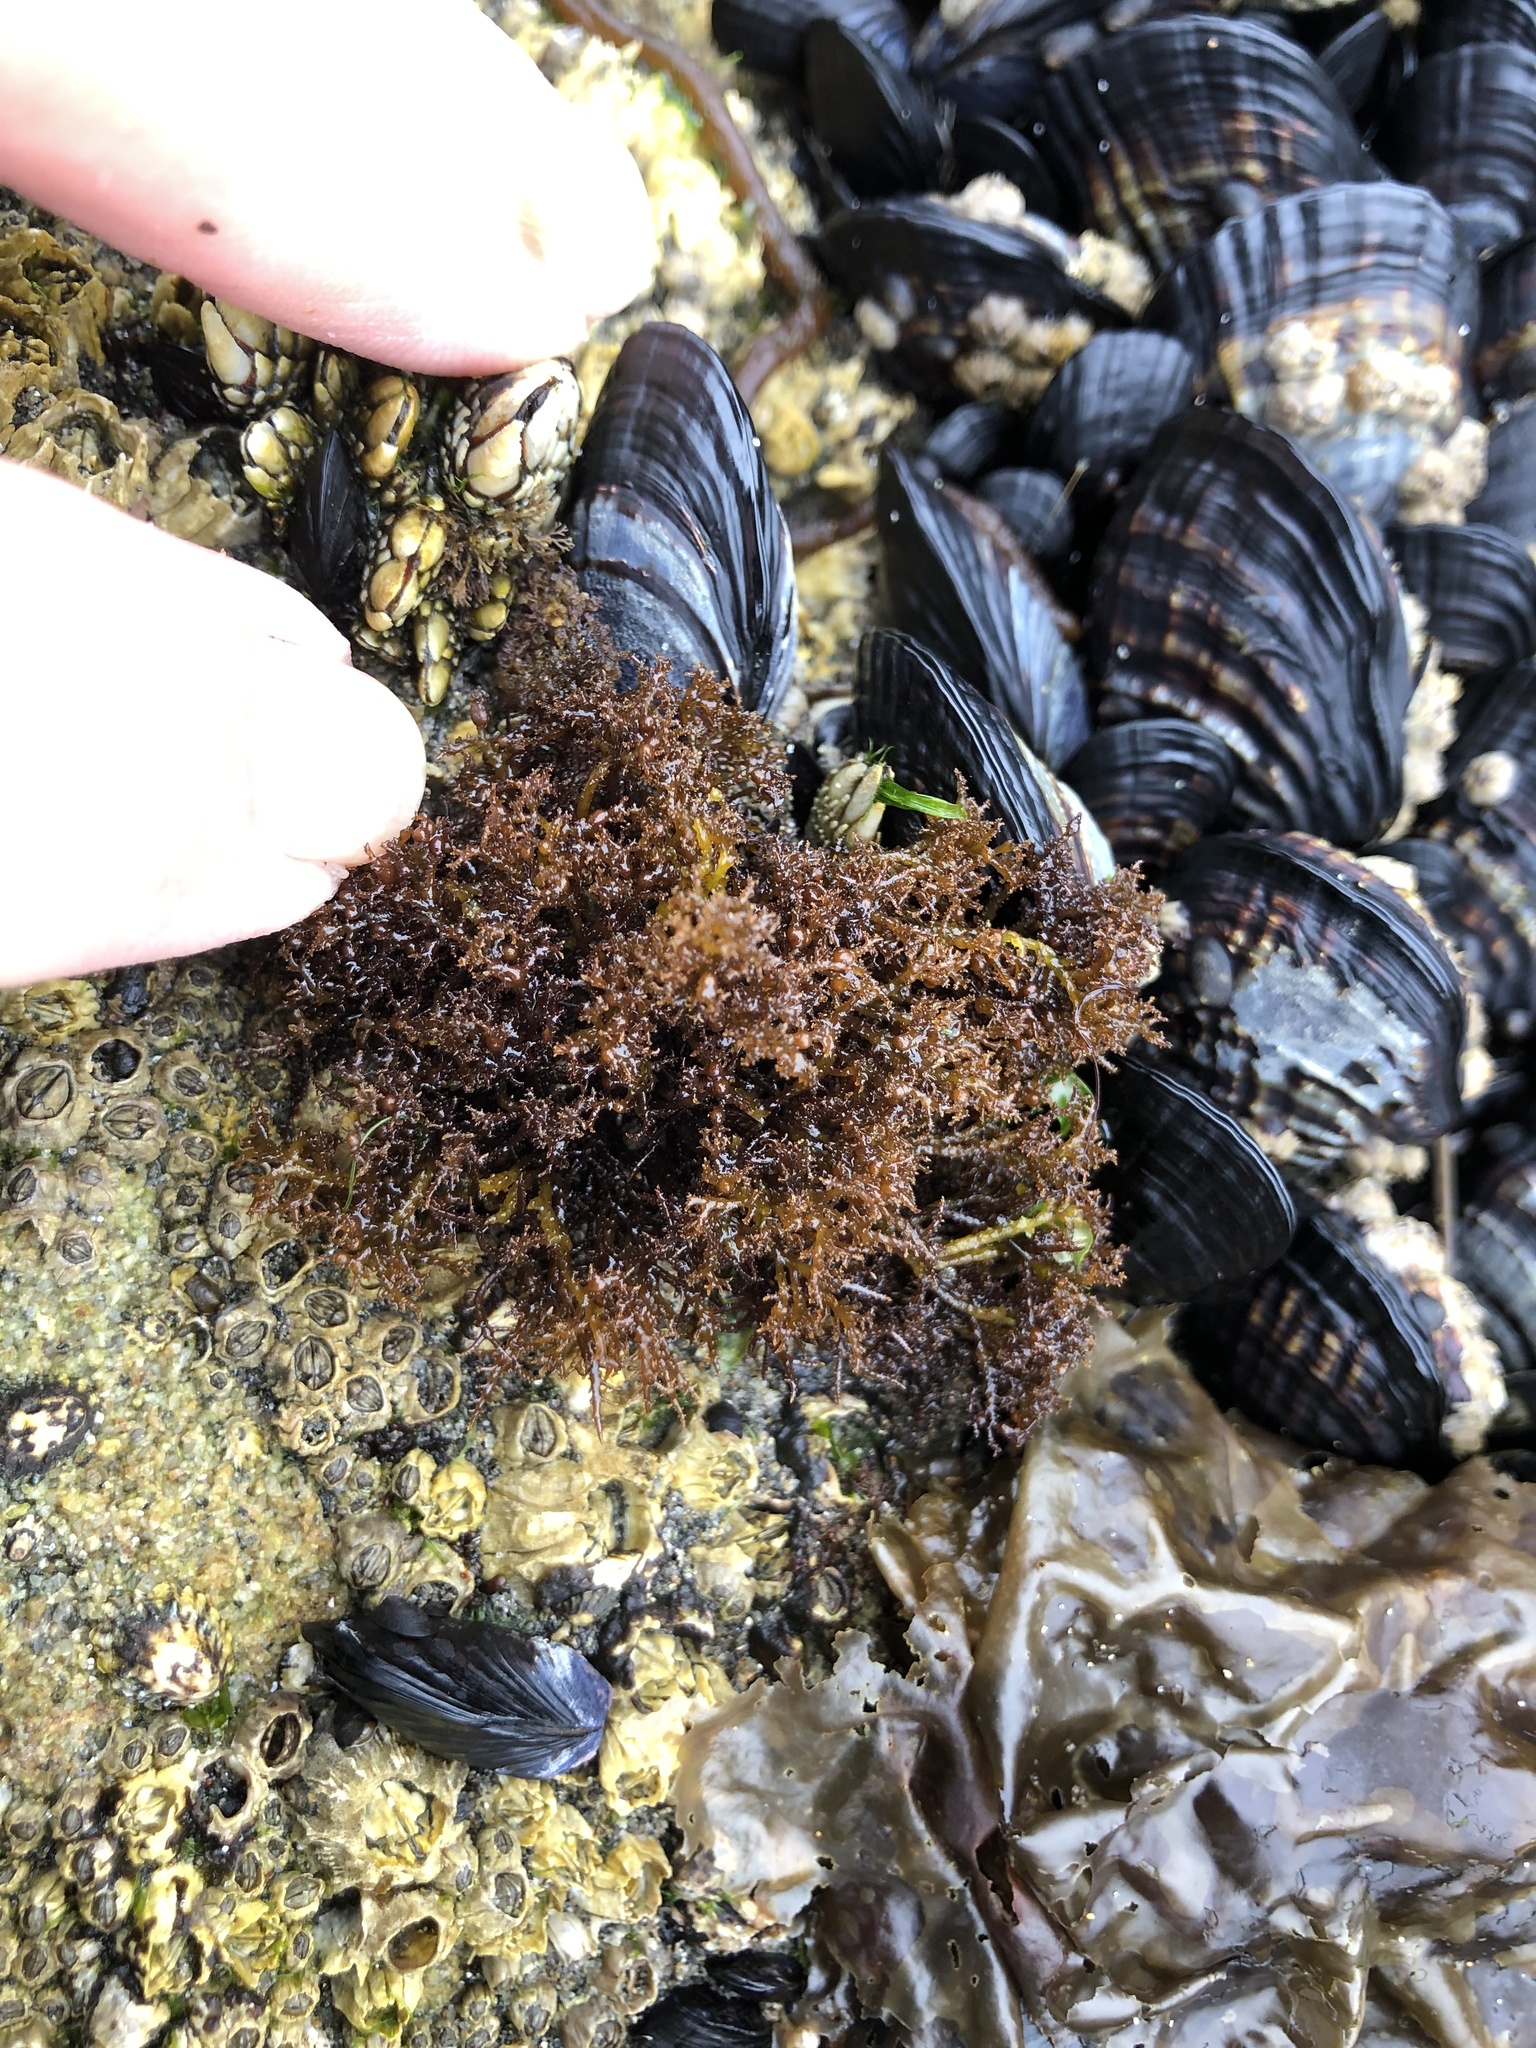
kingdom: Plantae
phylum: Rhodophyta
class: Florideophyceae
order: Gigartinales
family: Endocladiaceae
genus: Endocladia
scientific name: Endocladia muricata
